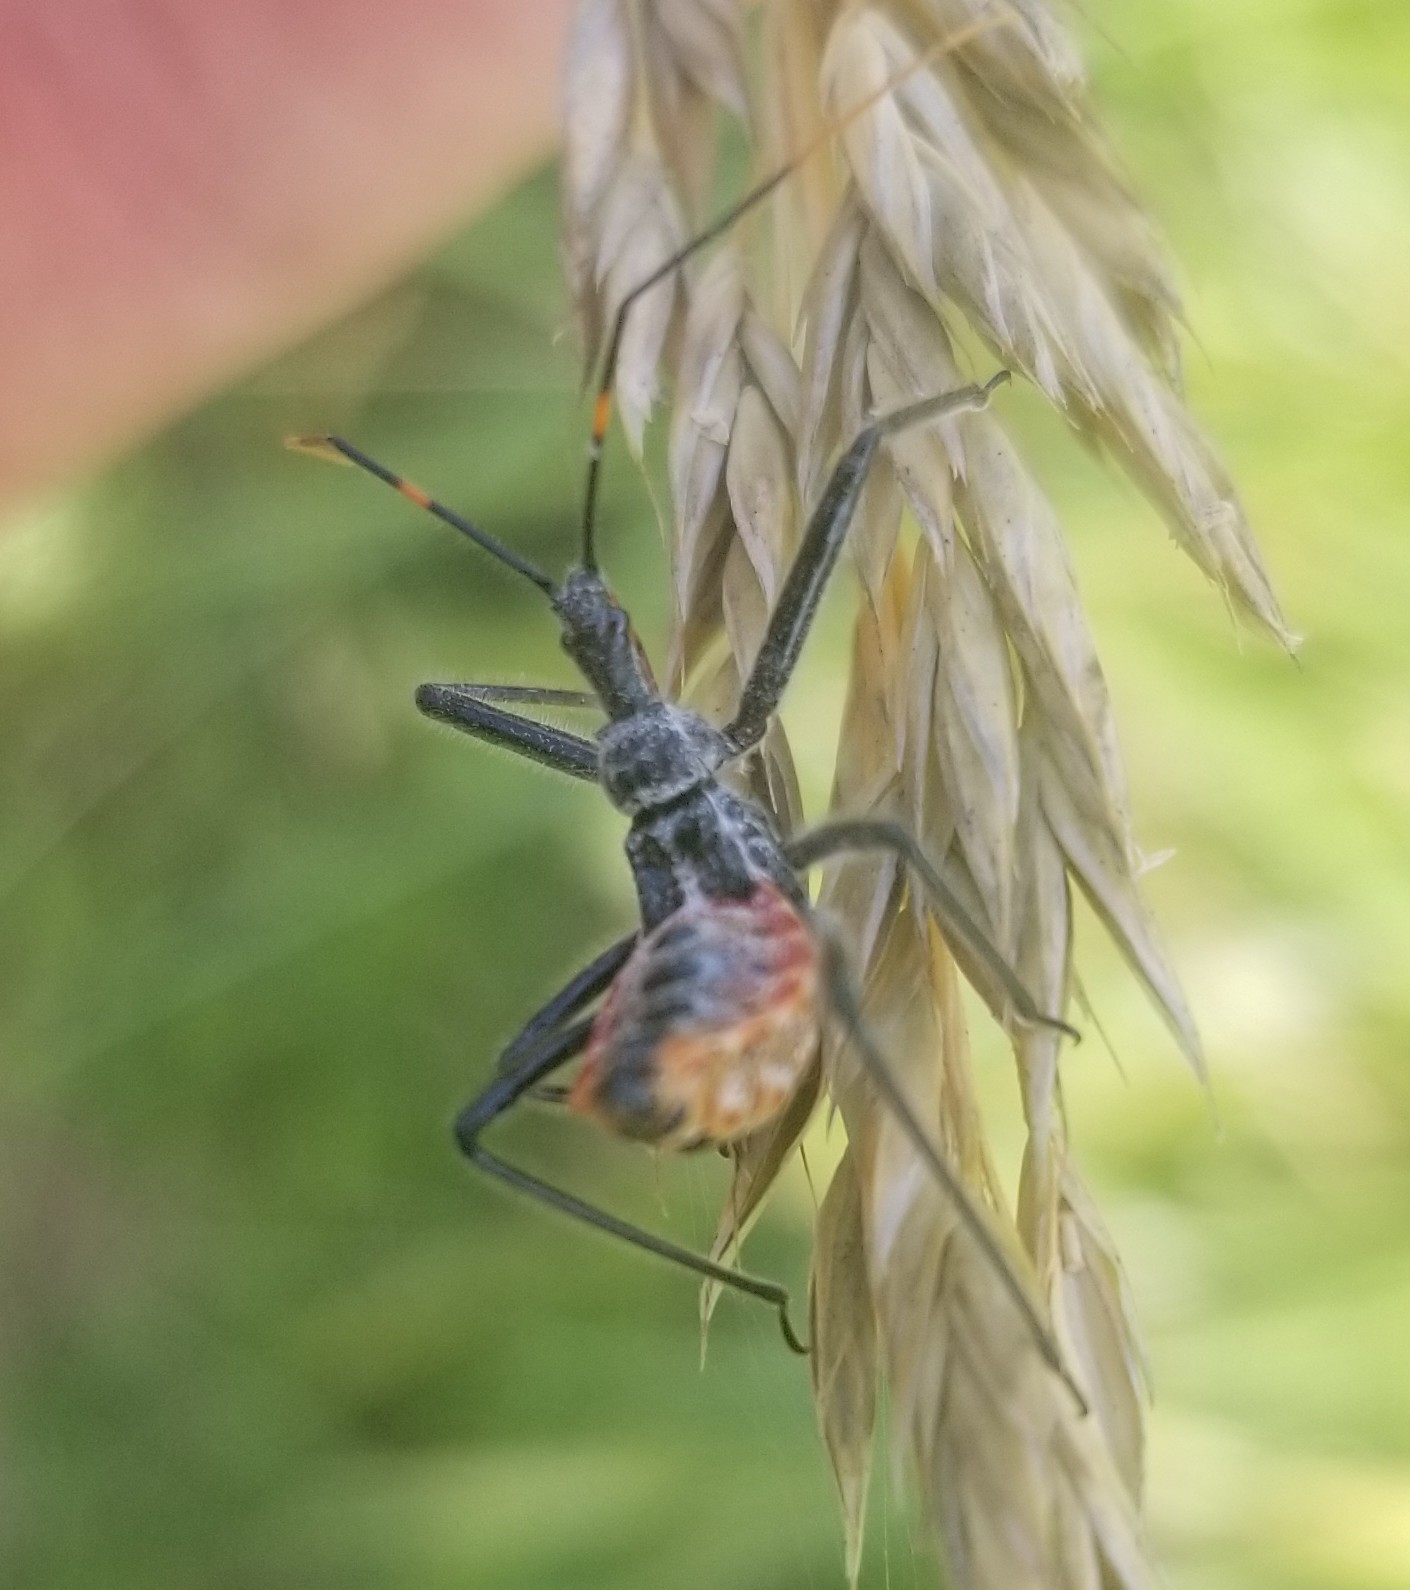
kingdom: Animalia
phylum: Arthropoda
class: Insecta
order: Hemiptera
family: Reduviidae
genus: Arilus
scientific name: Arilus cristatus
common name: North american wheel bug
